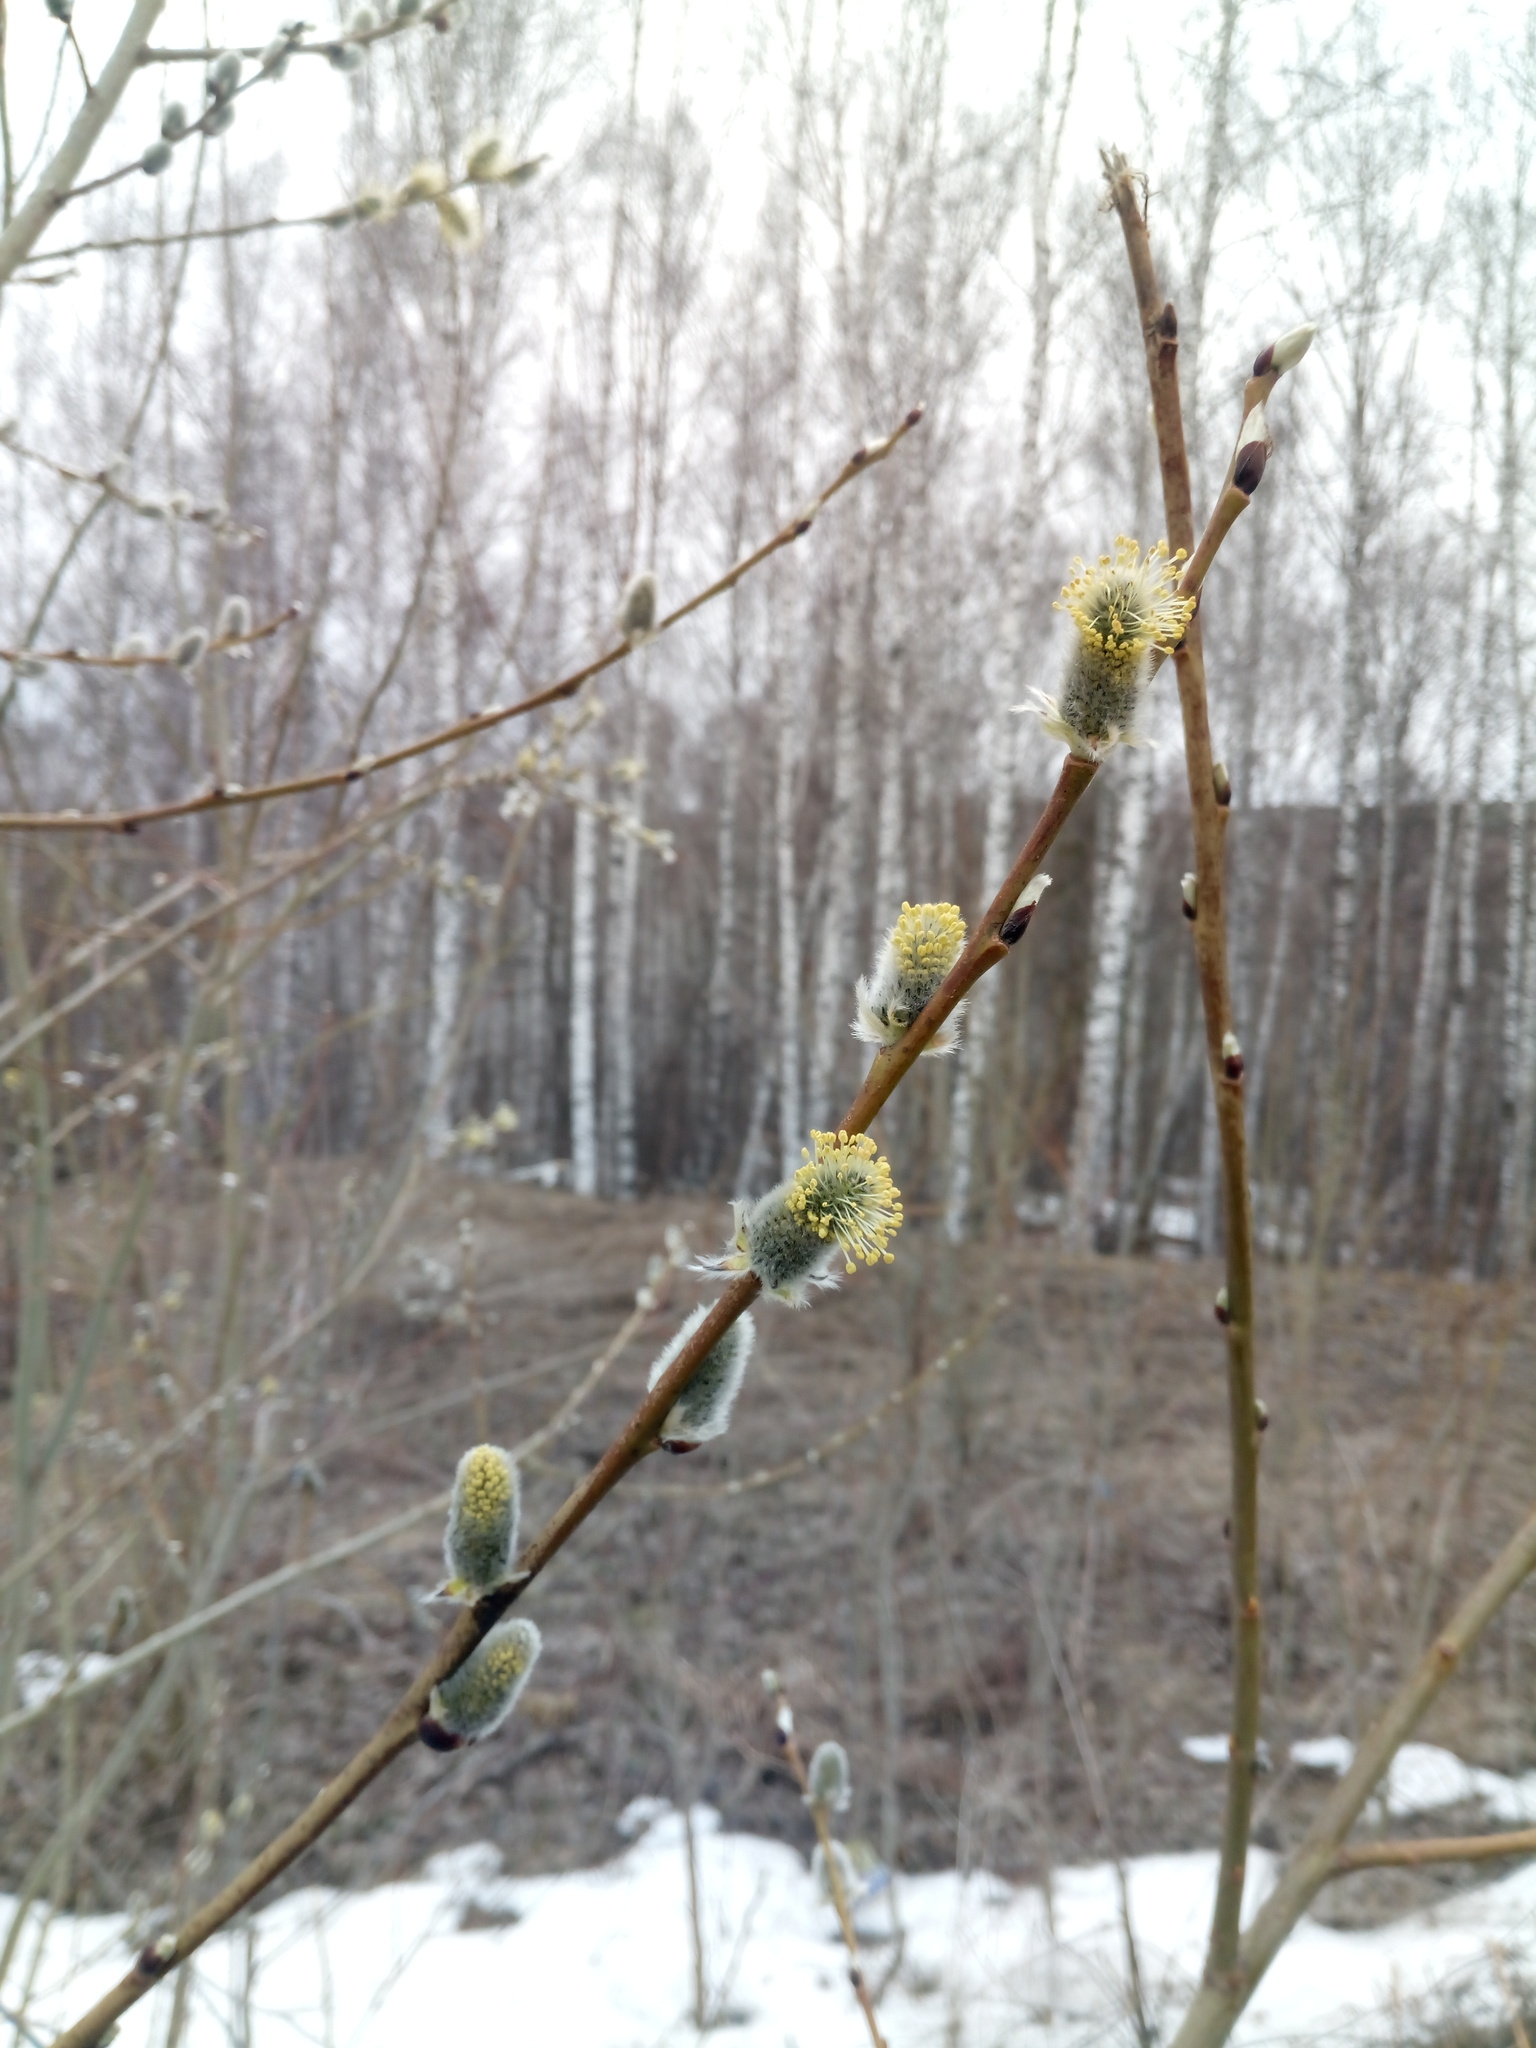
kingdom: Plantae
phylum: Tracheophyta
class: Magnoliopsida
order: Malpighiales
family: Salicaceae
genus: Salix
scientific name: Salix caprea
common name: Goat willow
